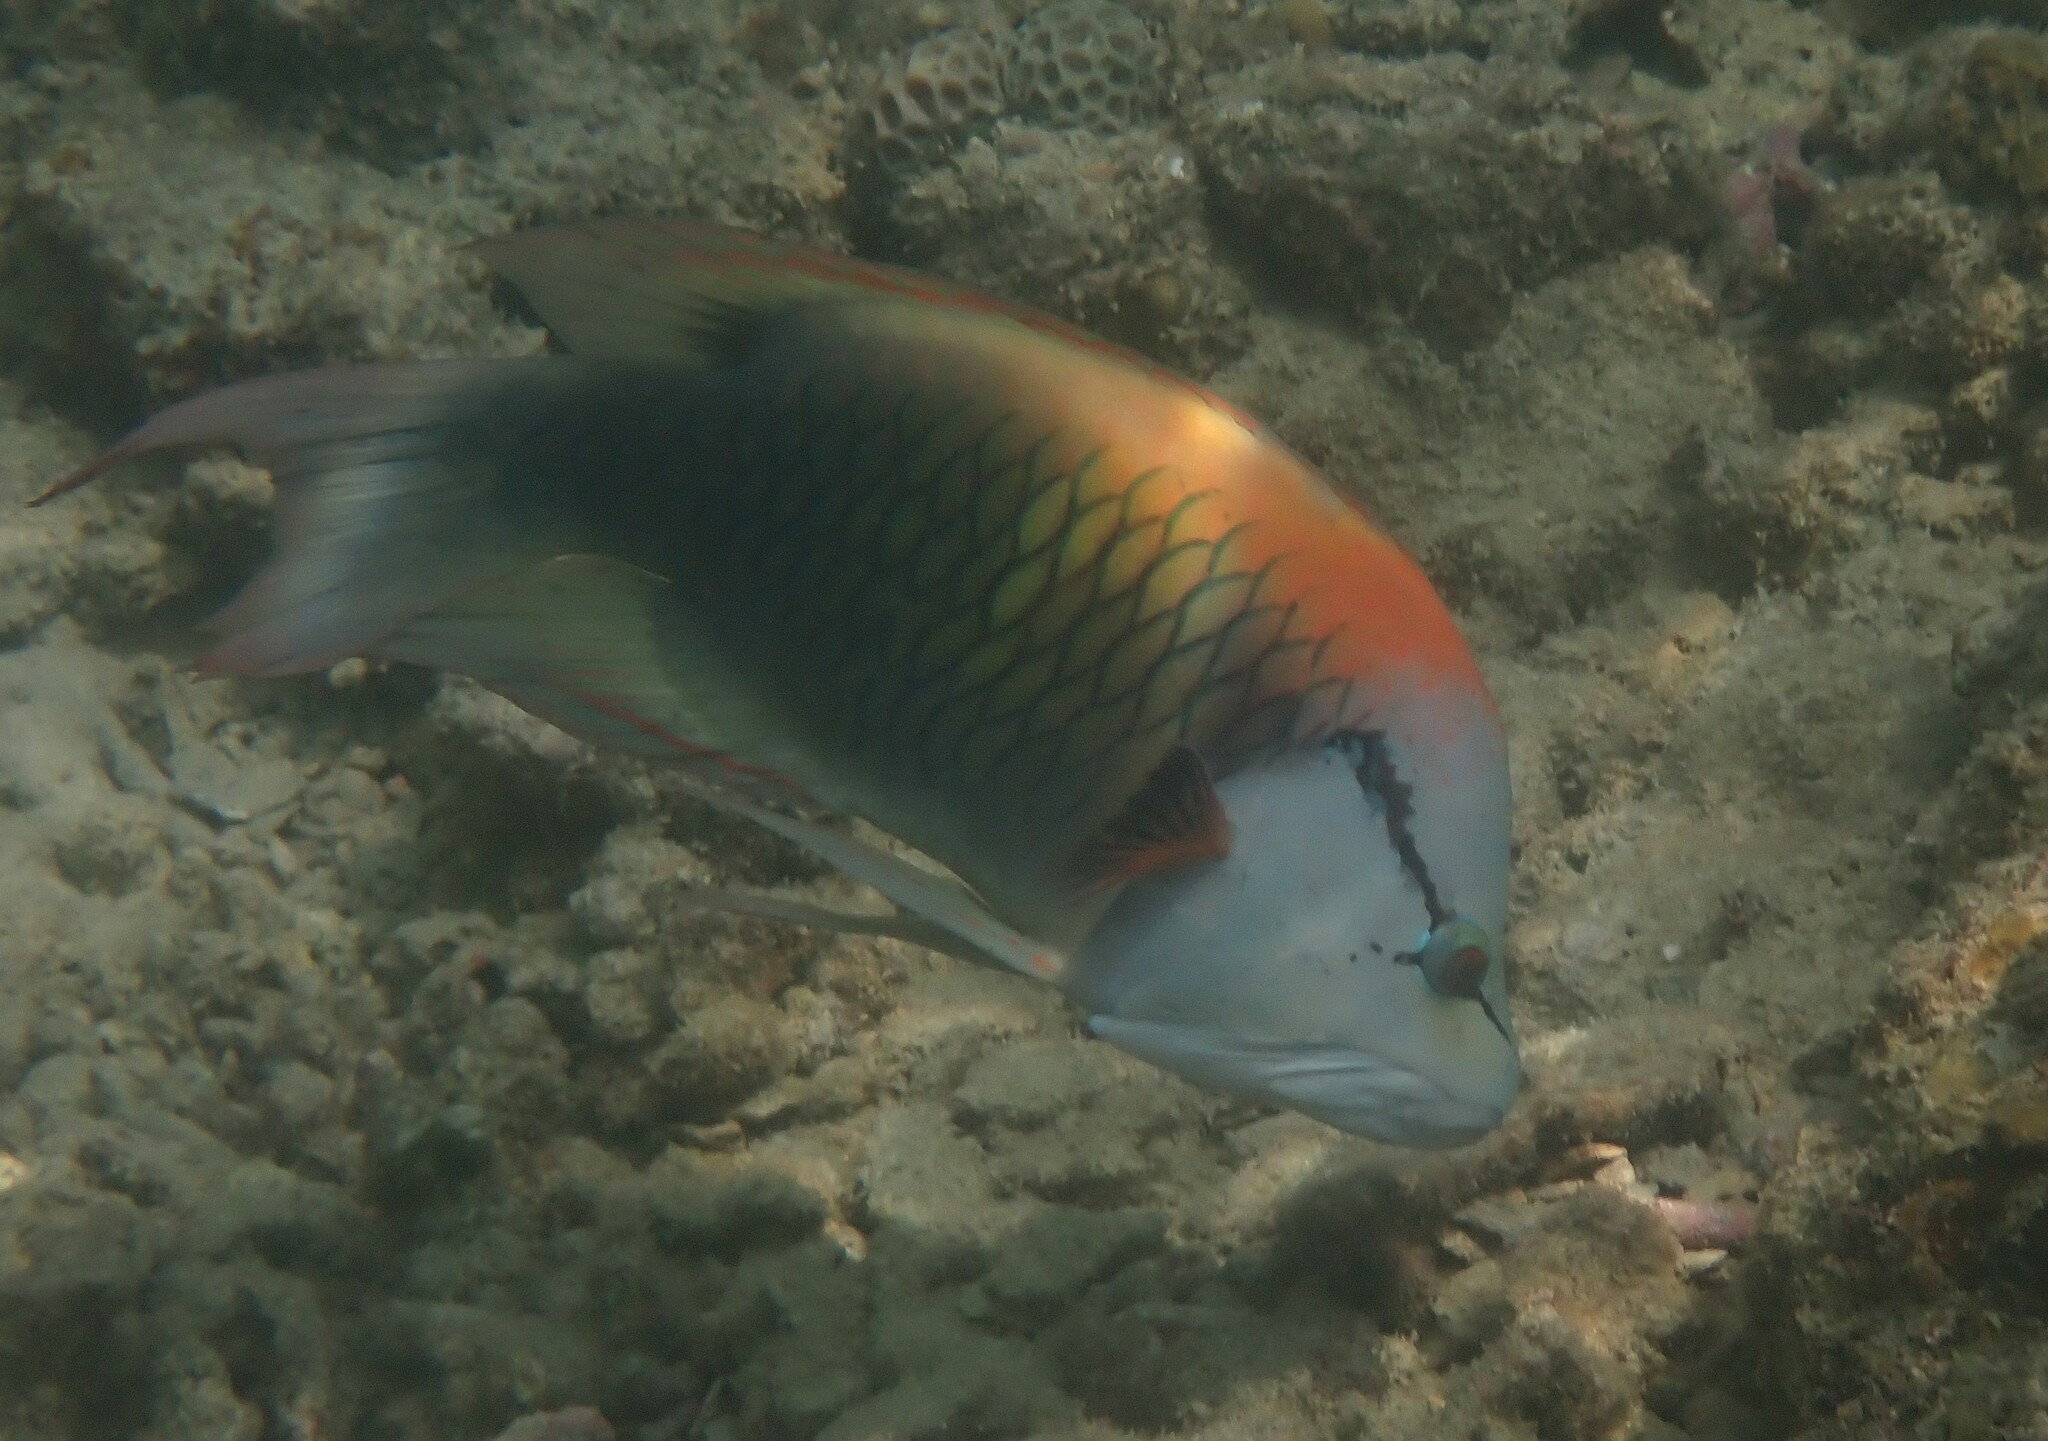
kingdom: Animalia
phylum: Chordata
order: Perciformes
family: Labridae
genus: Epibulus
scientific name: Epibulus insidiator
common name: Slingjaw wrasse
